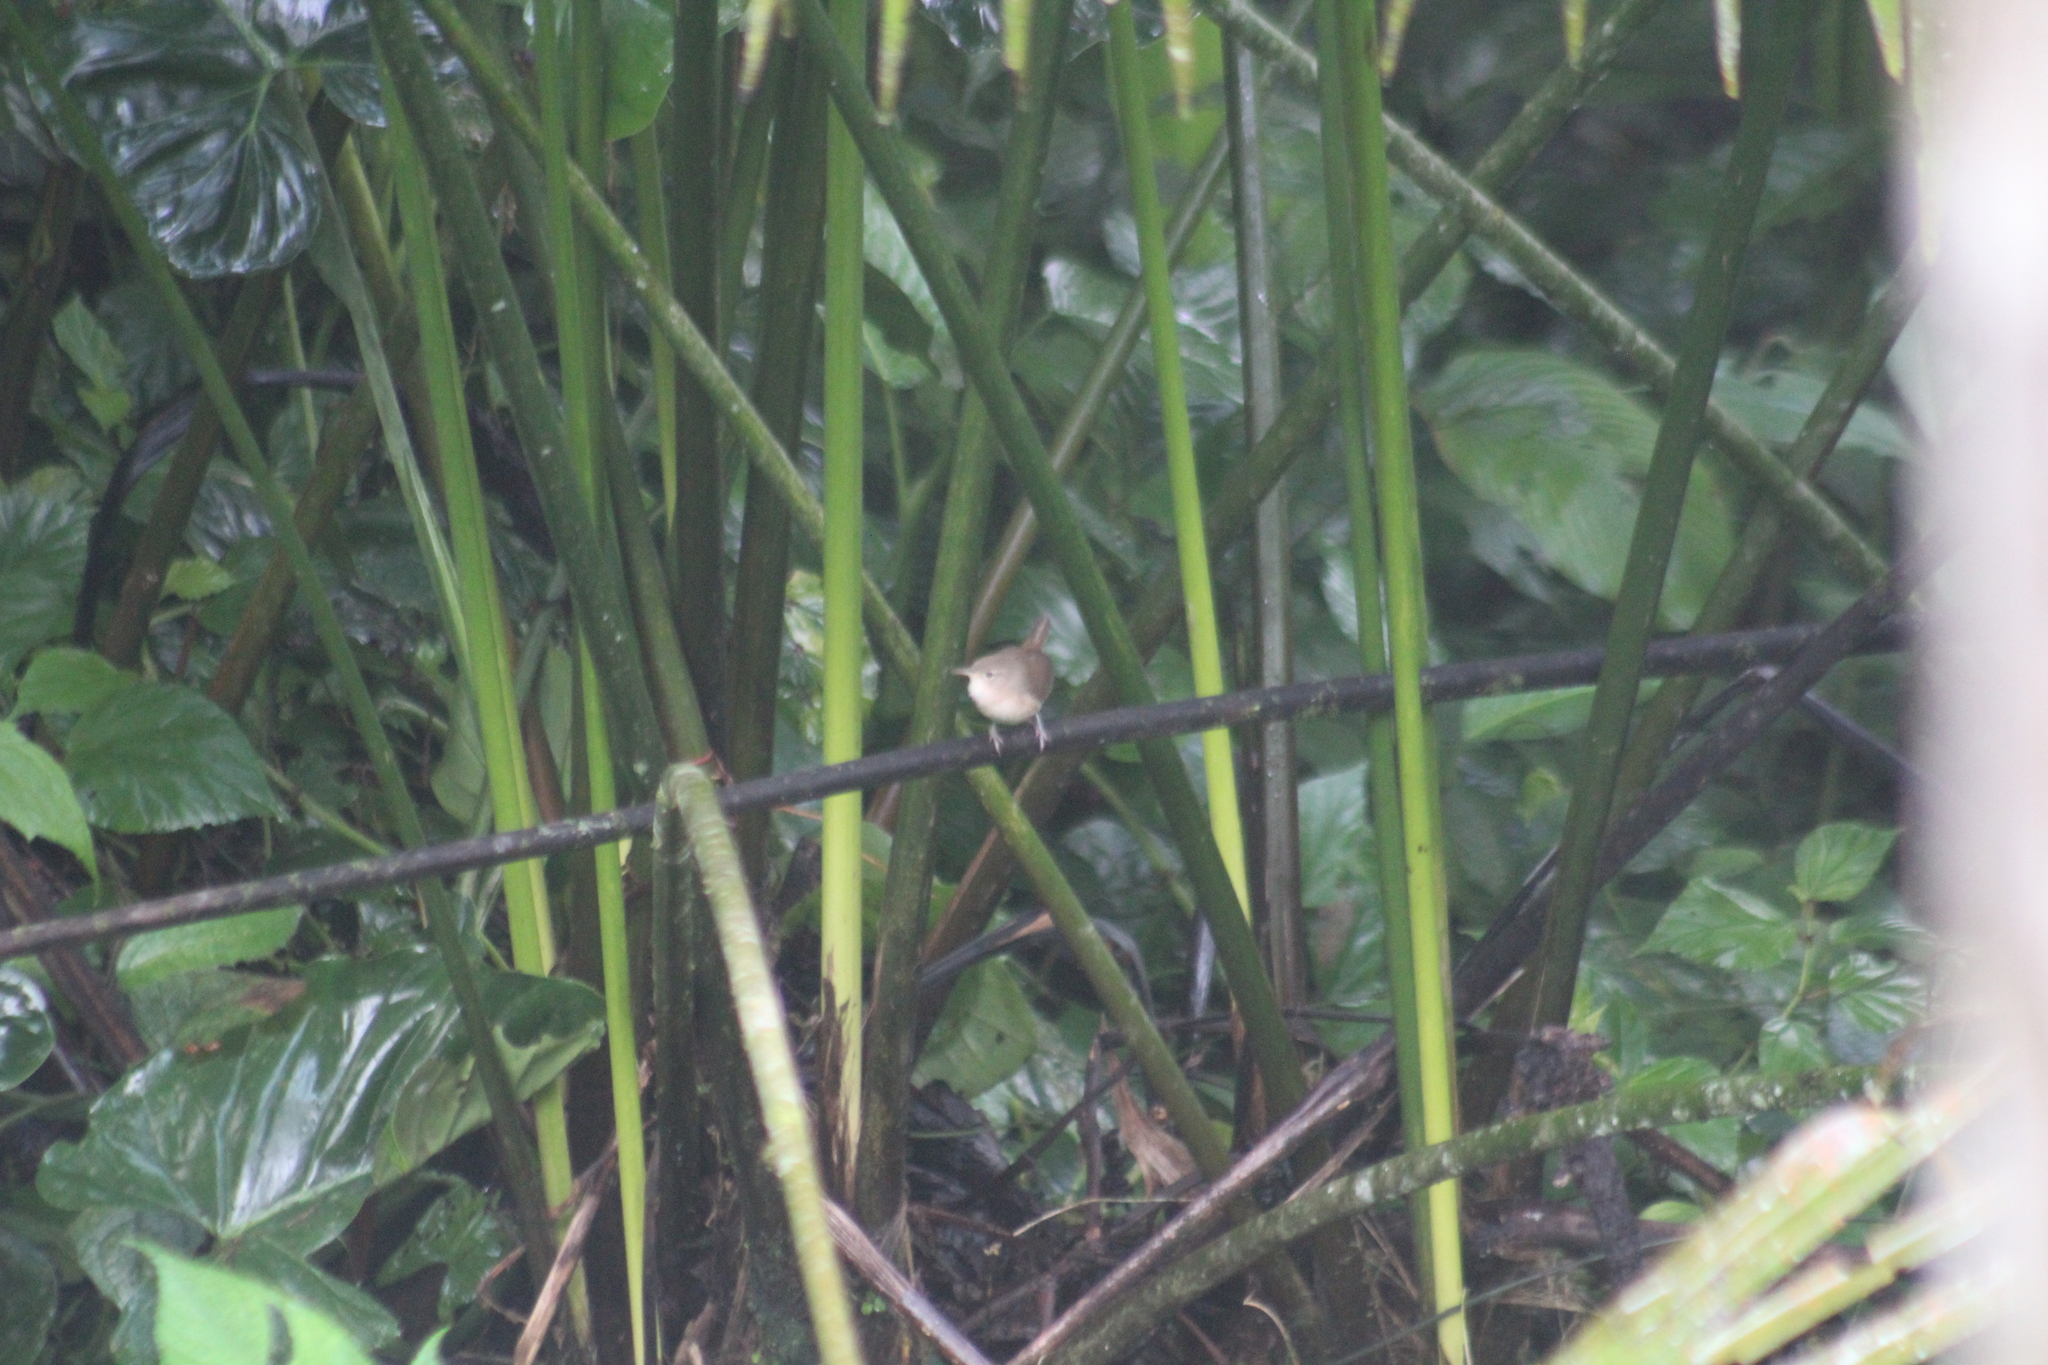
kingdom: Animalia
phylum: Chordata
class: Aves
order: Passeriformes
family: Troglodytidae
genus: Troglodytes
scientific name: Troglodytes aedon
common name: House wren
